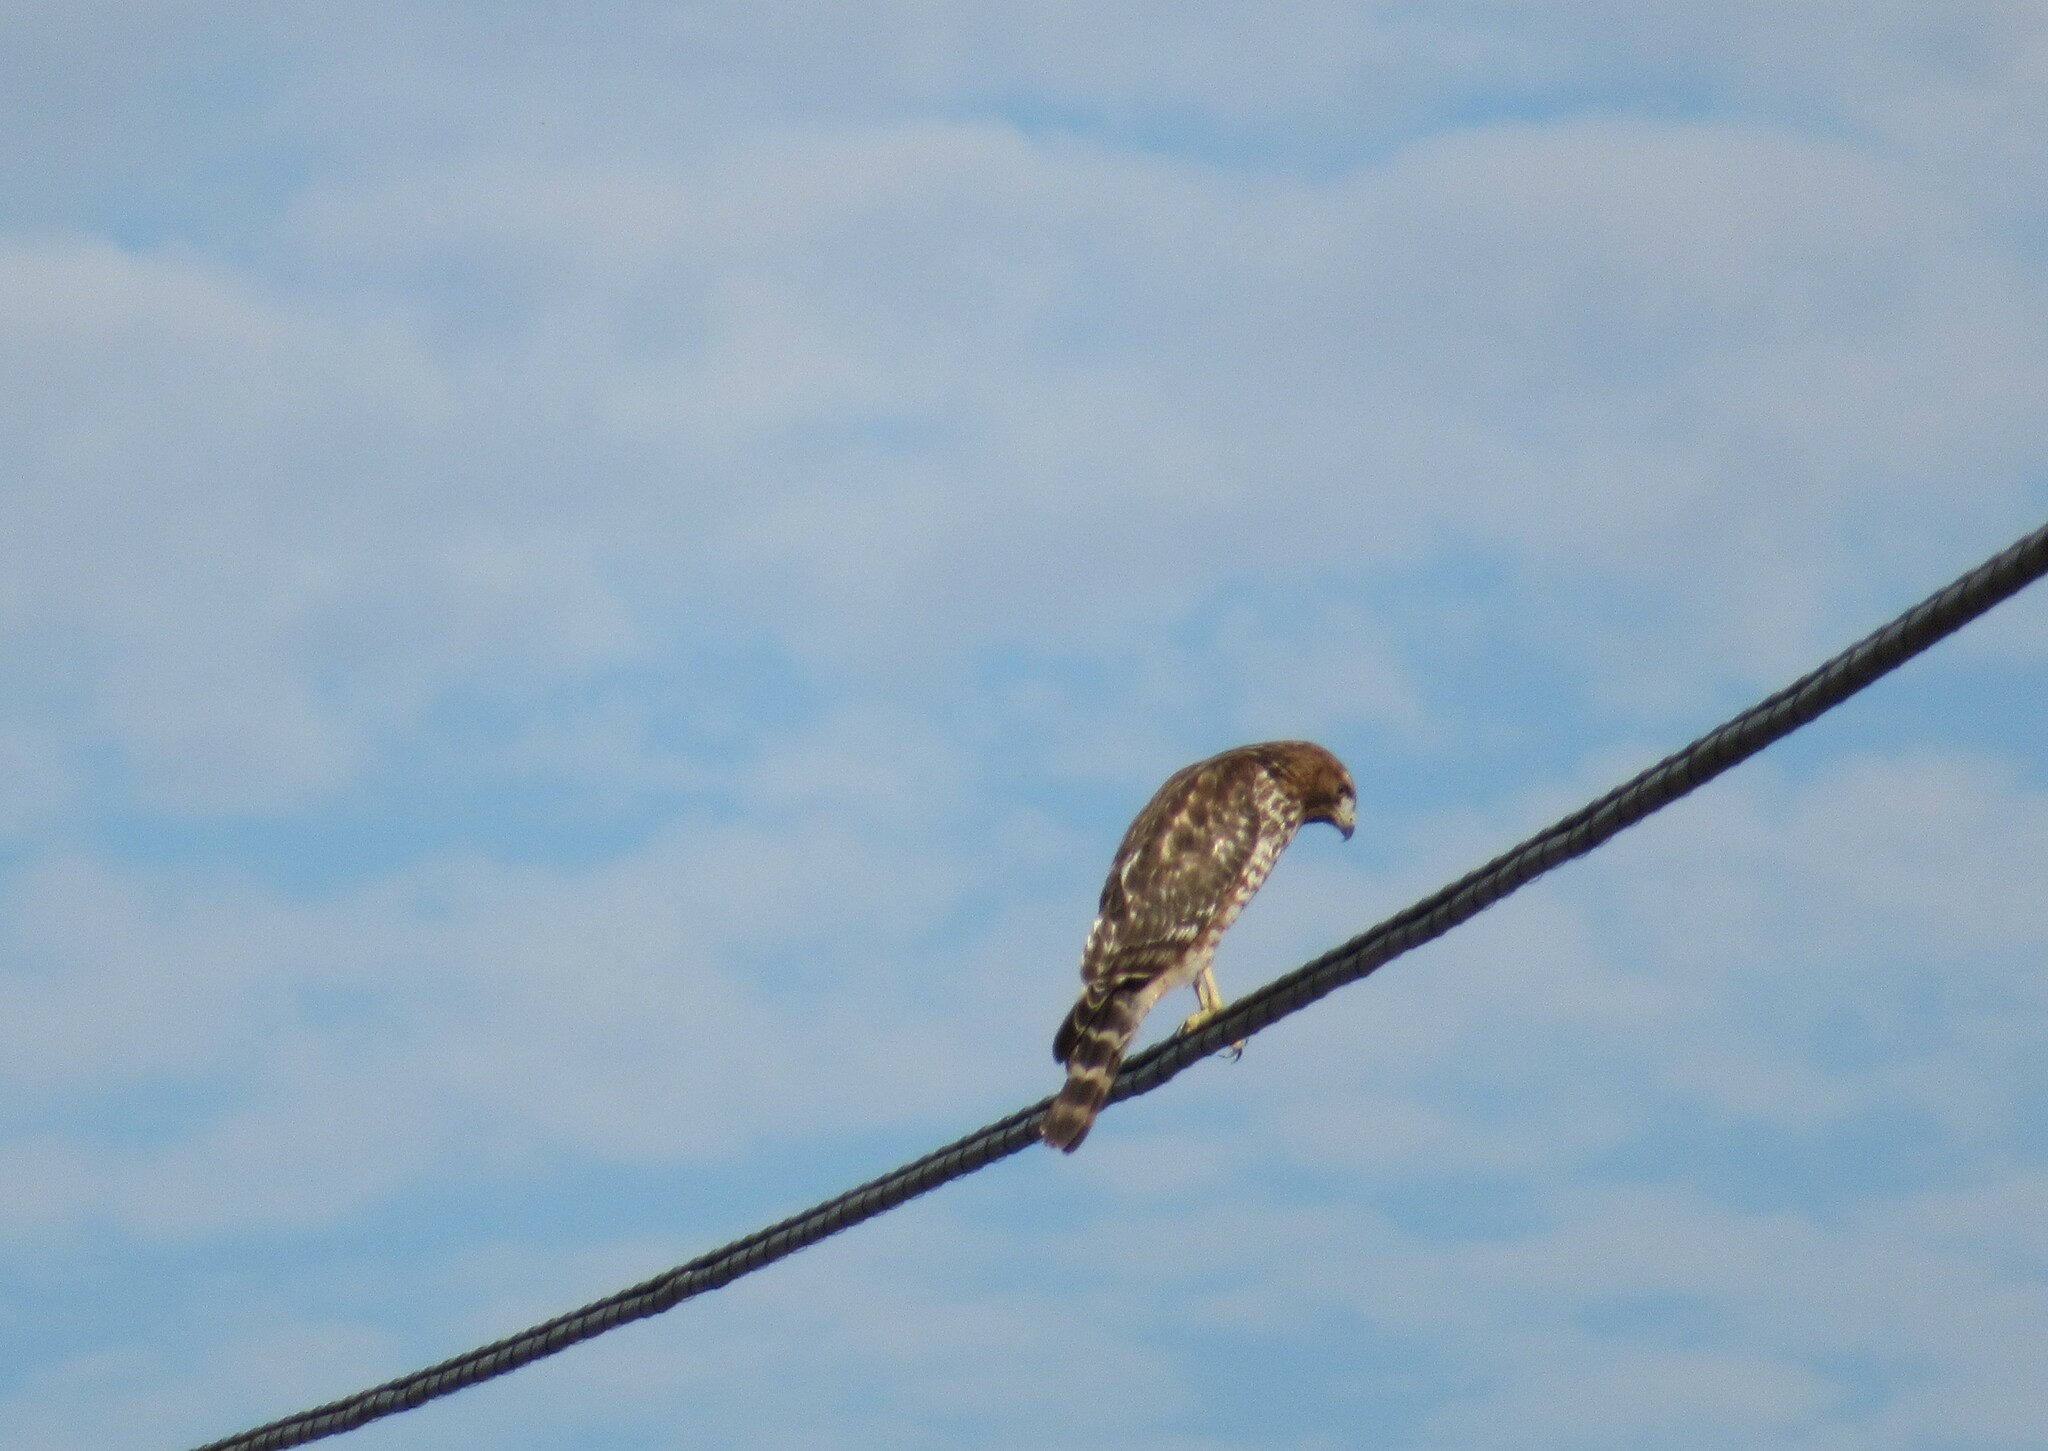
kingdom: Animalia
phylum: Chordata
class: Aves
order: Accipitriformes
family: Accipitridae
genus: Buteo
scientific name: Buteo lineatus
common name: Red-shouldered hawk
